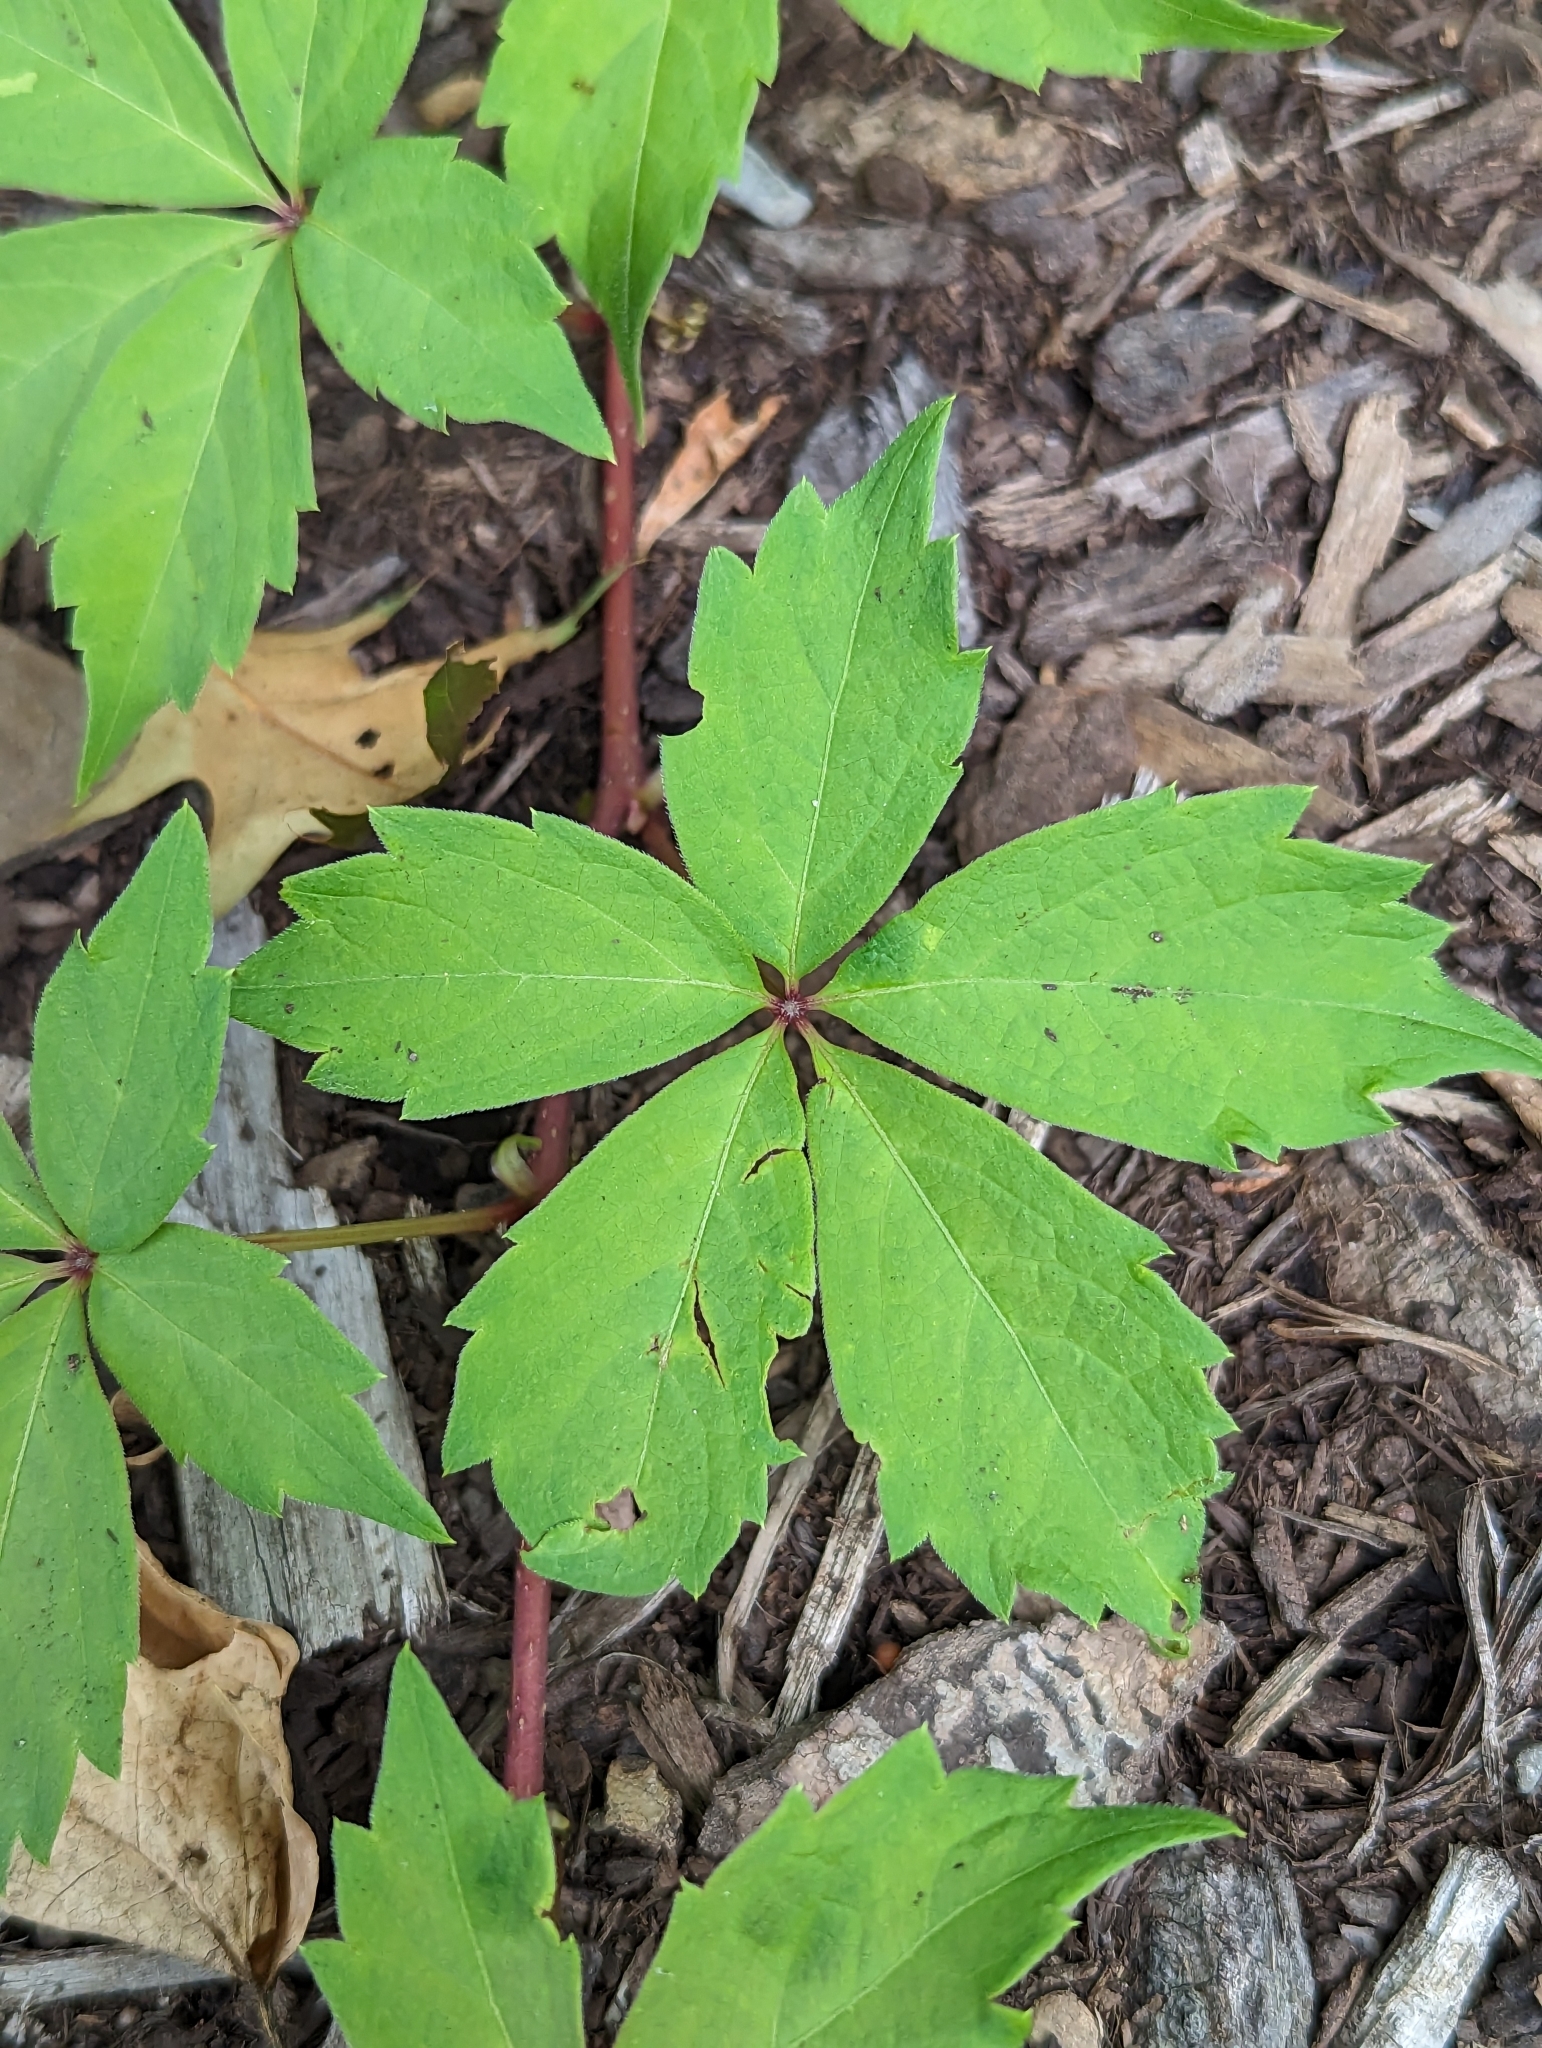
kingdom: Animalia
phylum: Arthropoda
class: Insecta
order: Hymenoptera
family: Formicidae
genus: Paratrechina
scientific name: Paratrechina flavipes
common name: Eastern asian formicine ant
